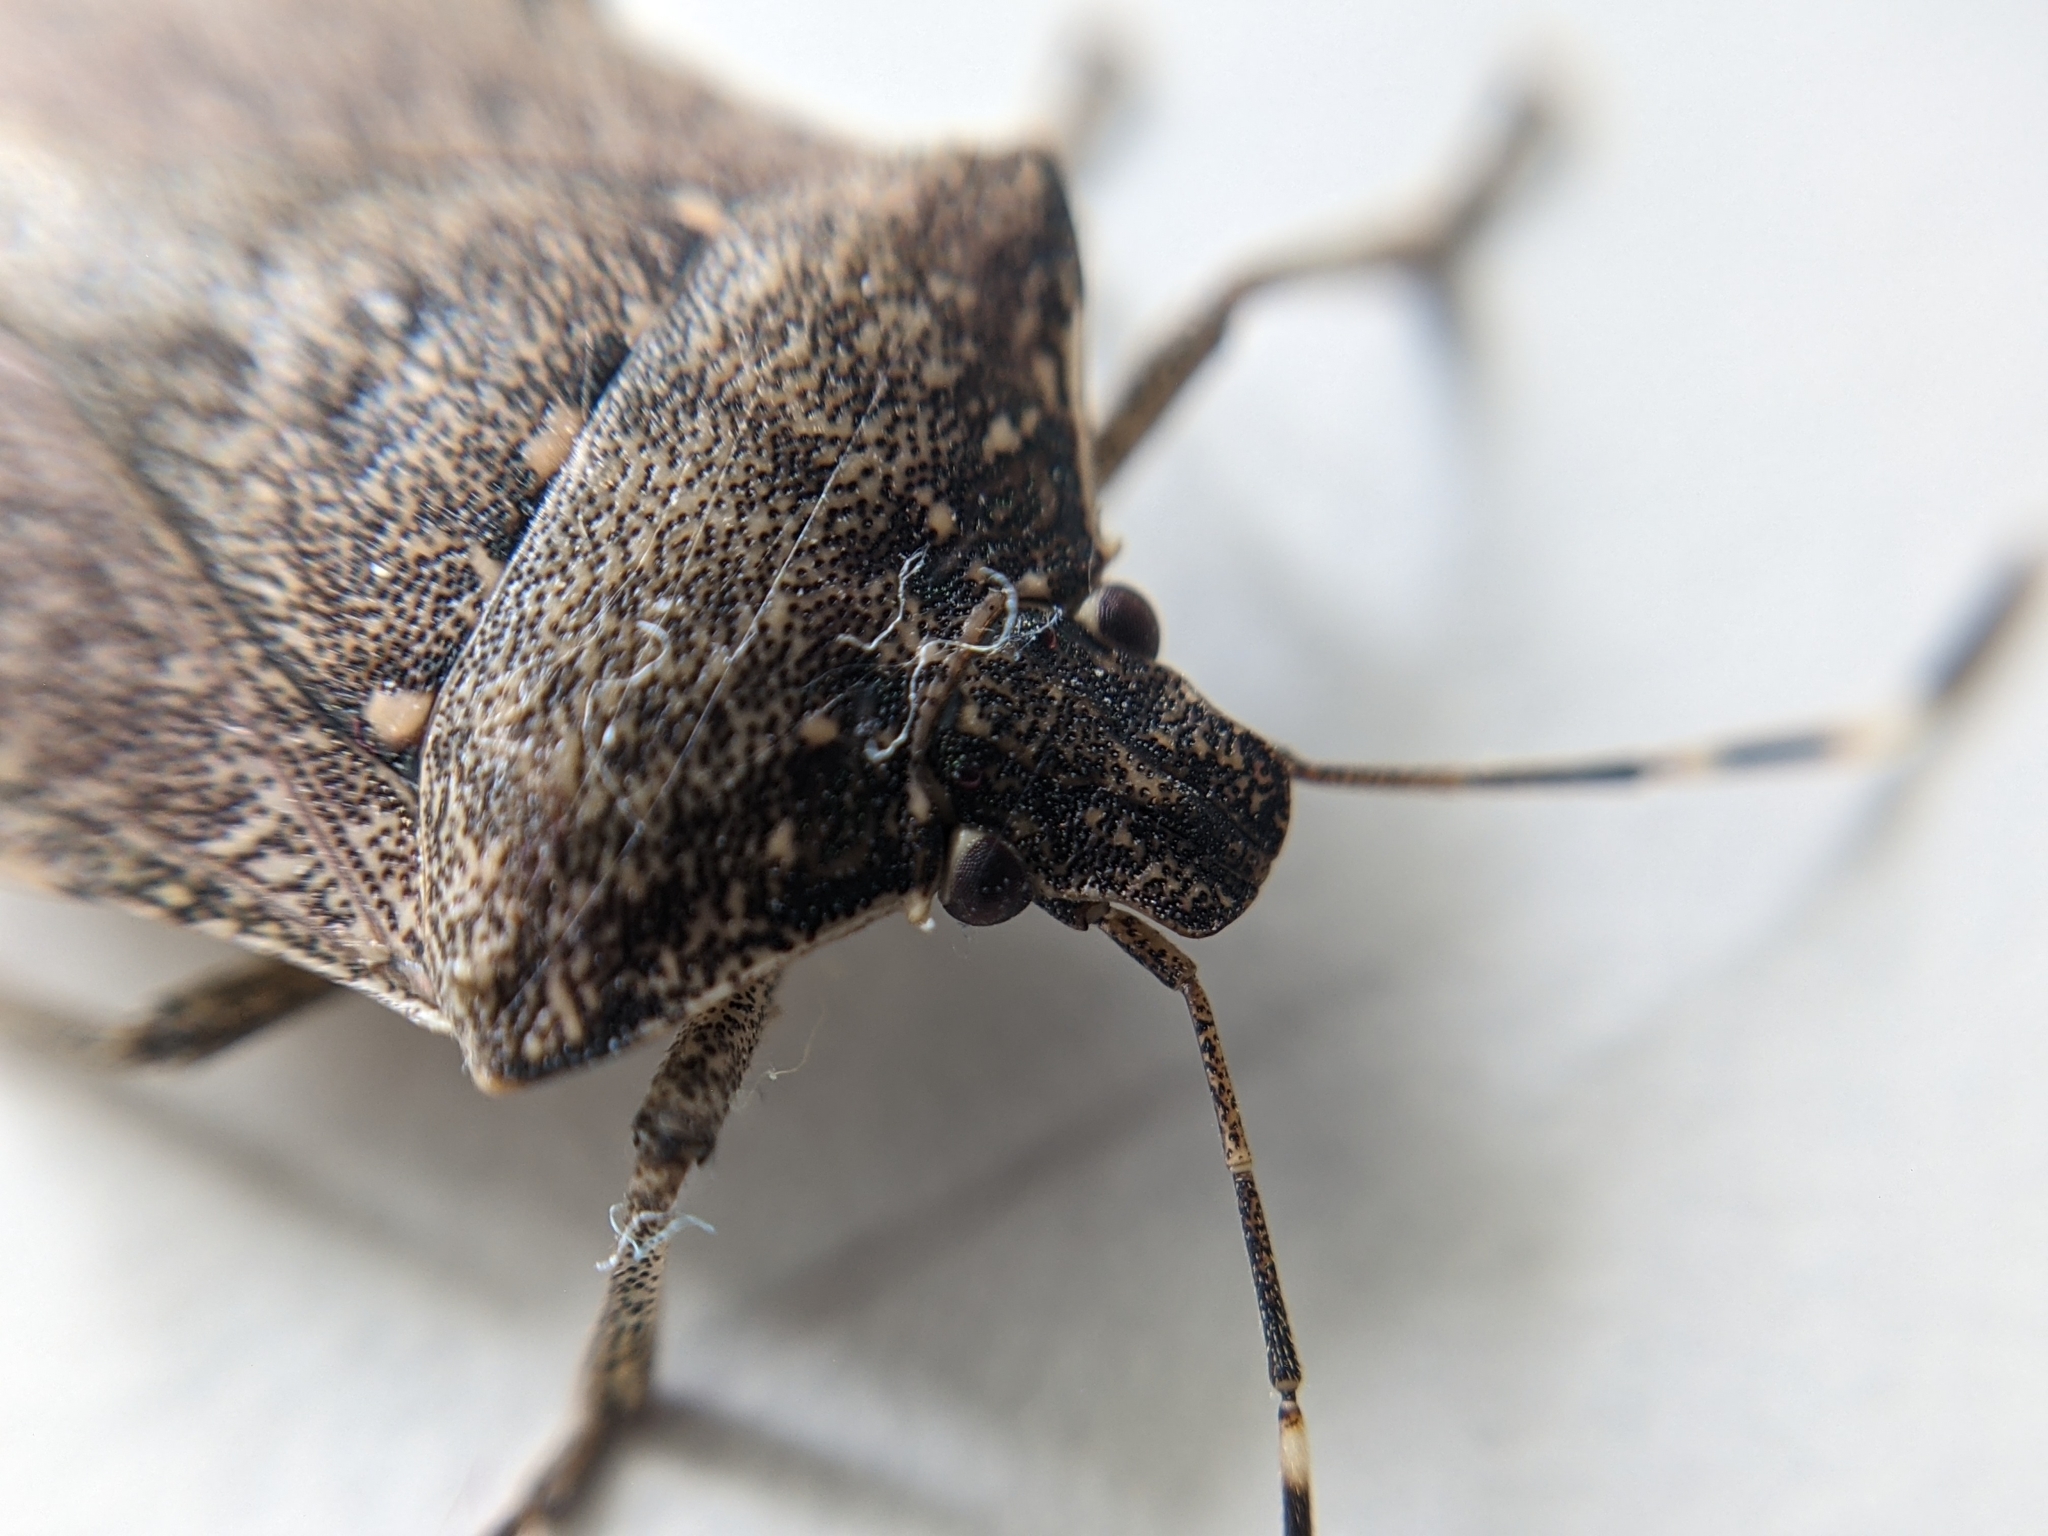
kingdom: Animalia
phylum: Arthropoda
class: Insecta
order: Hemiptera
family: Pentatomidae
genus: Halyomorpha
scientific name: Halyomorpha halys
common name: Brown marmorated stink bug
